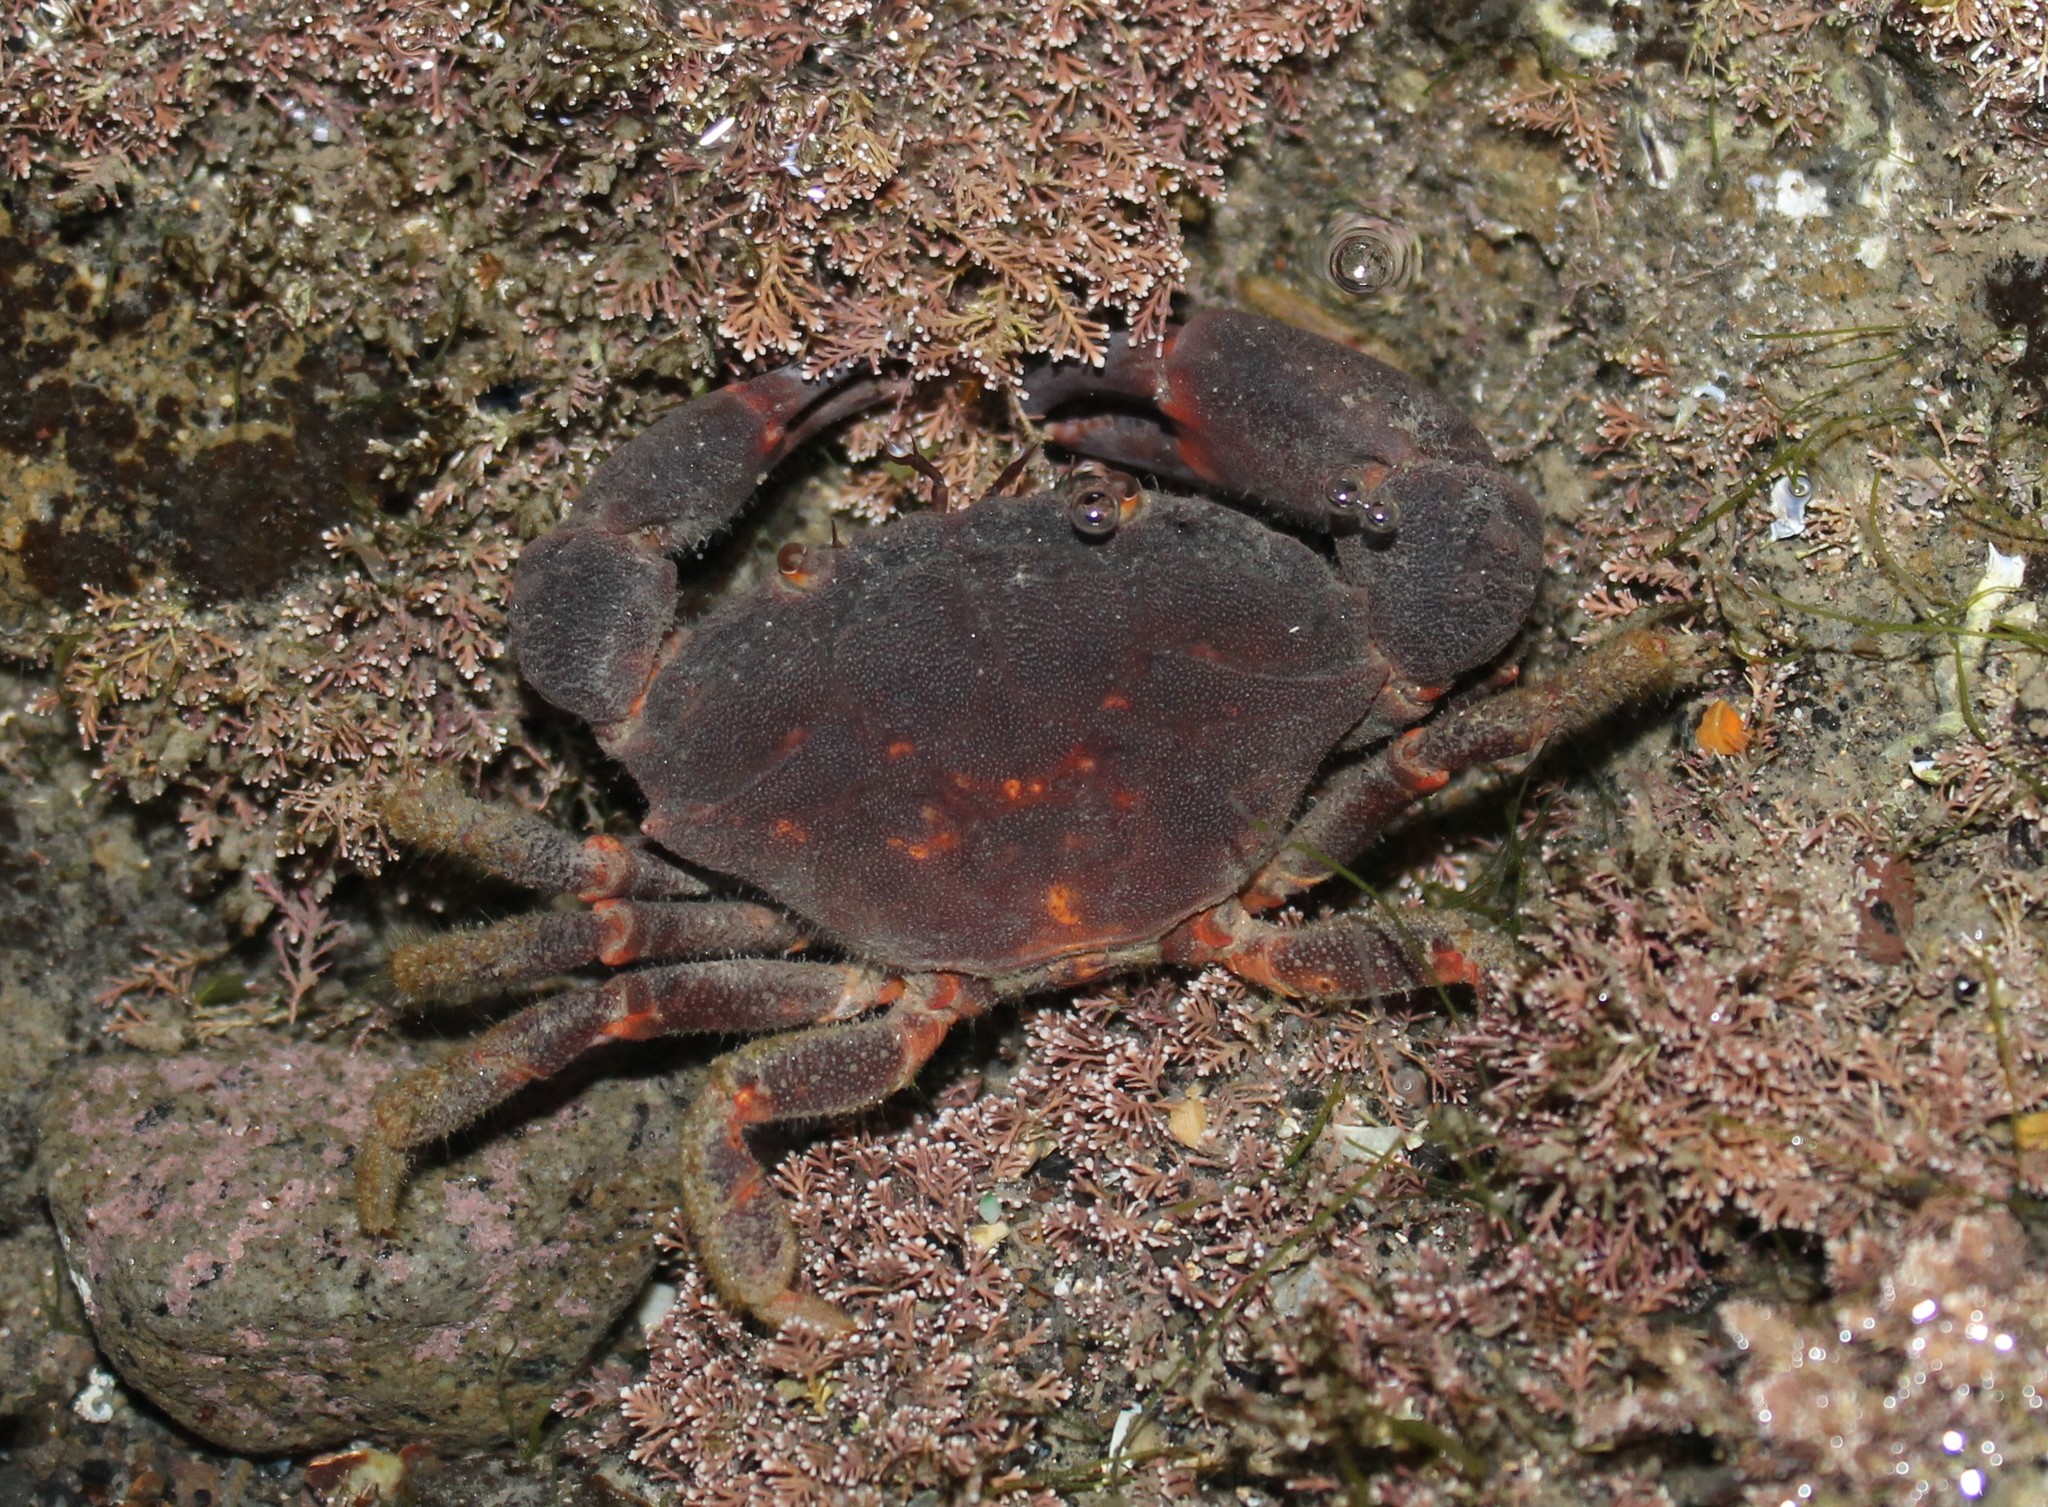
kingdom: Animalia
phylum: Arthropoda
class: Malacostraca
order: Decapoda
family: Oziidae
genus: Ozius
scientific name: Ozius deplanatus
